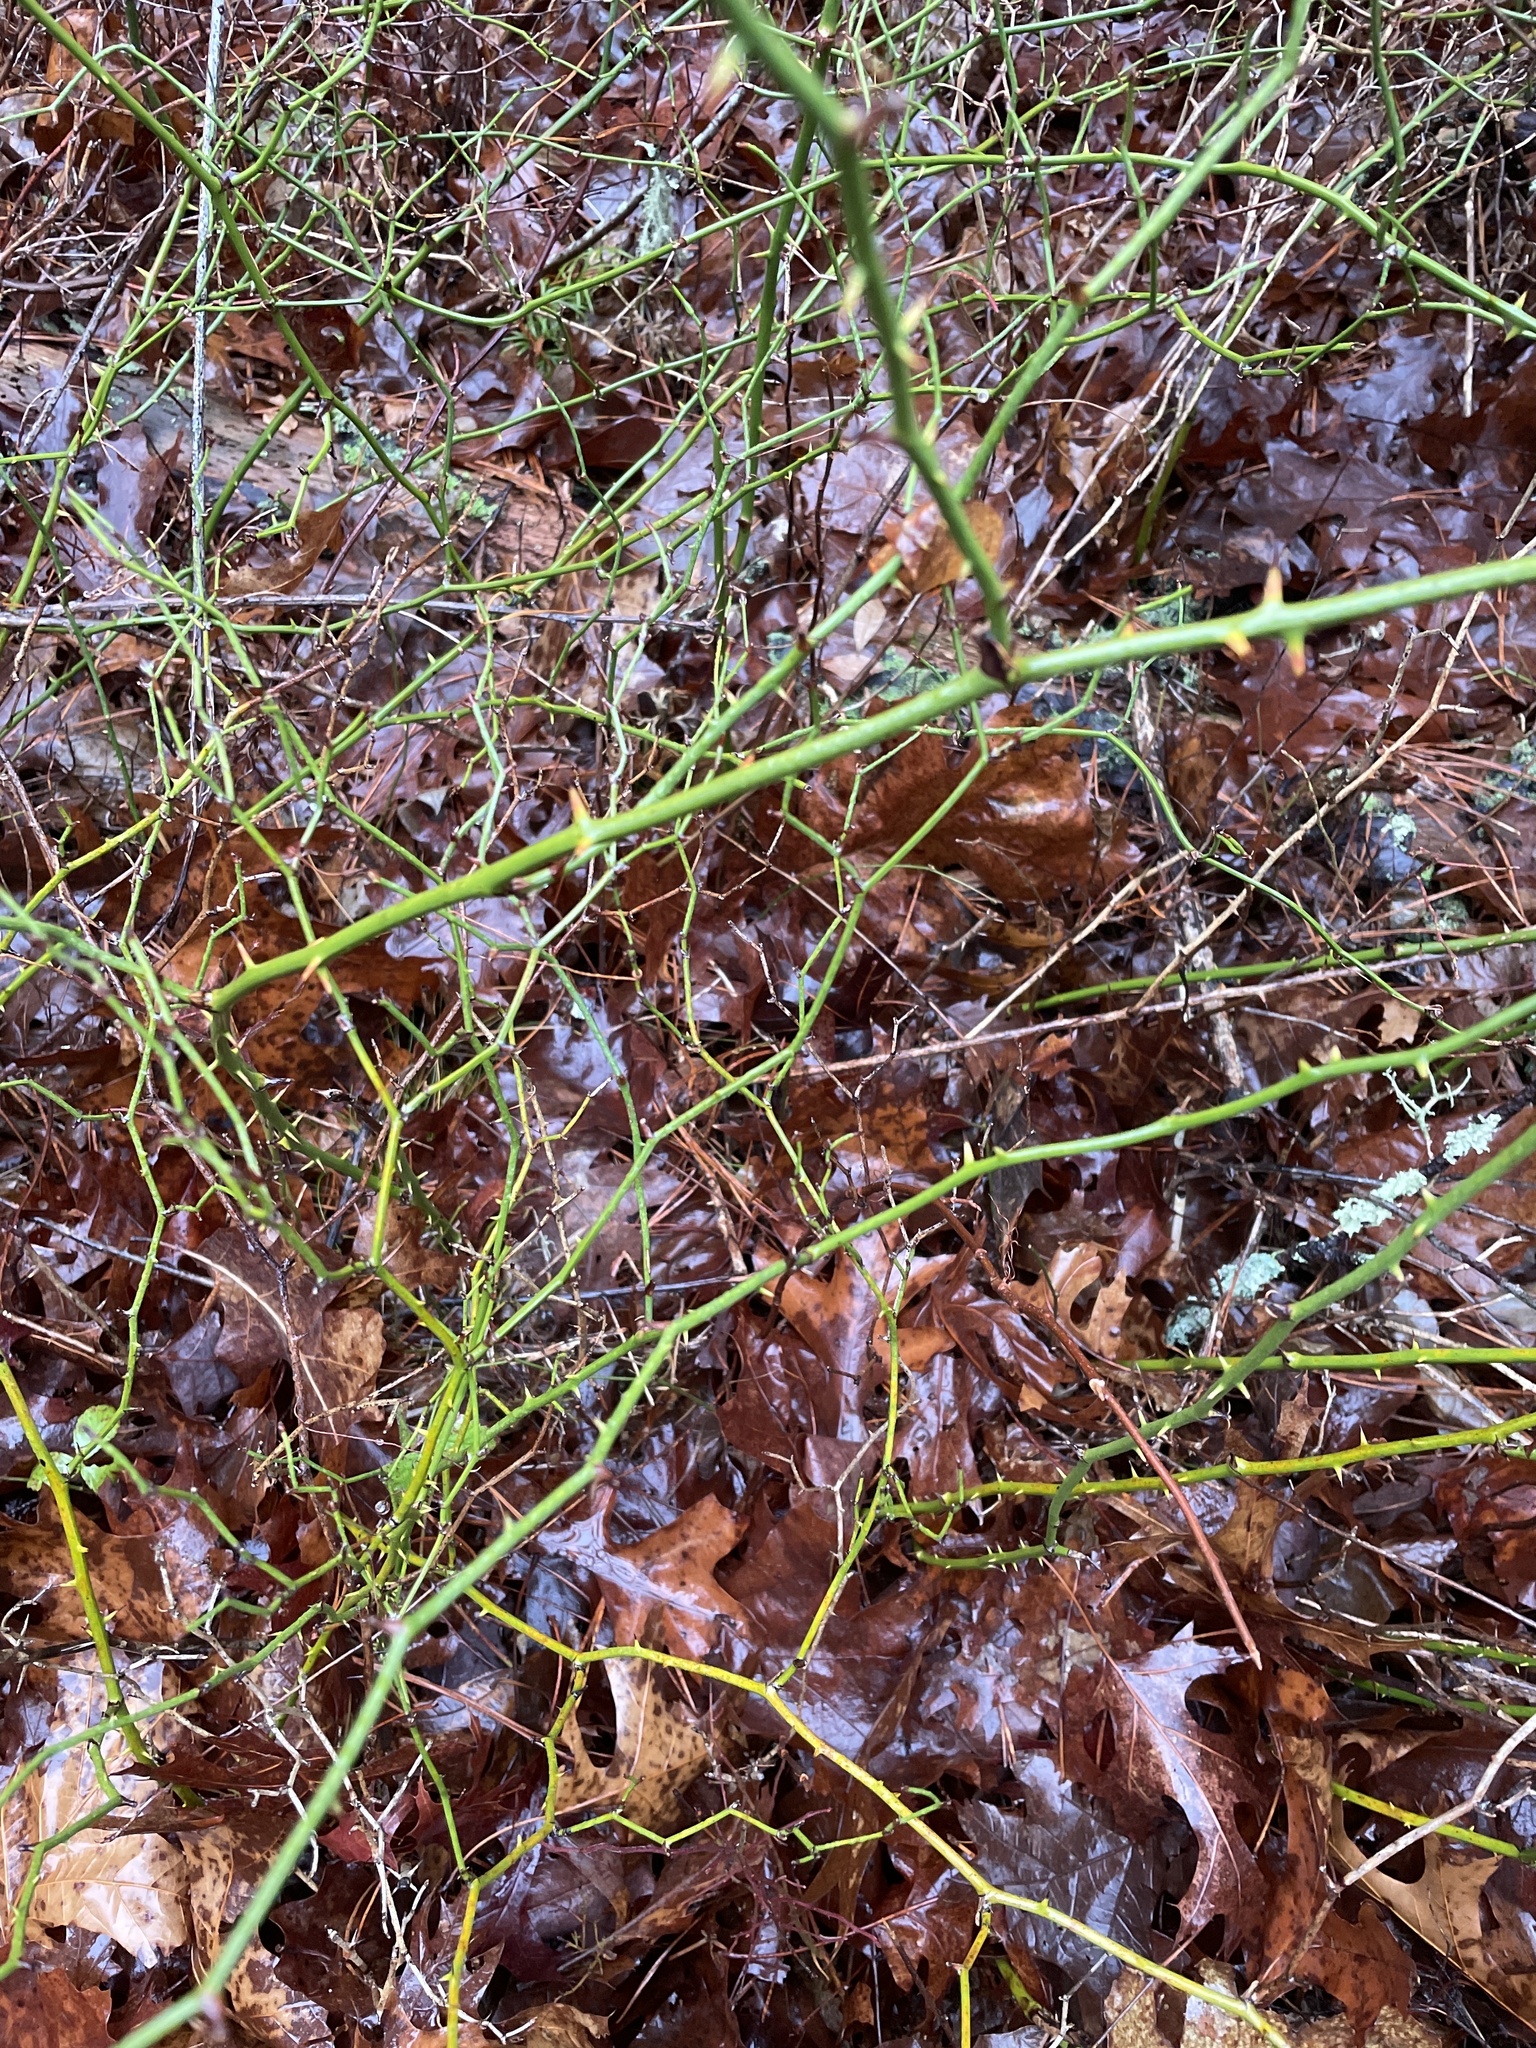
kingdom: Plantae
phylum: Tracheophyta
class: Liliopsida
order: Liliales
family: Smilacaceae
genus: Smilax
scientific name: Smilax rotundifolia
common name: Bullbriar
